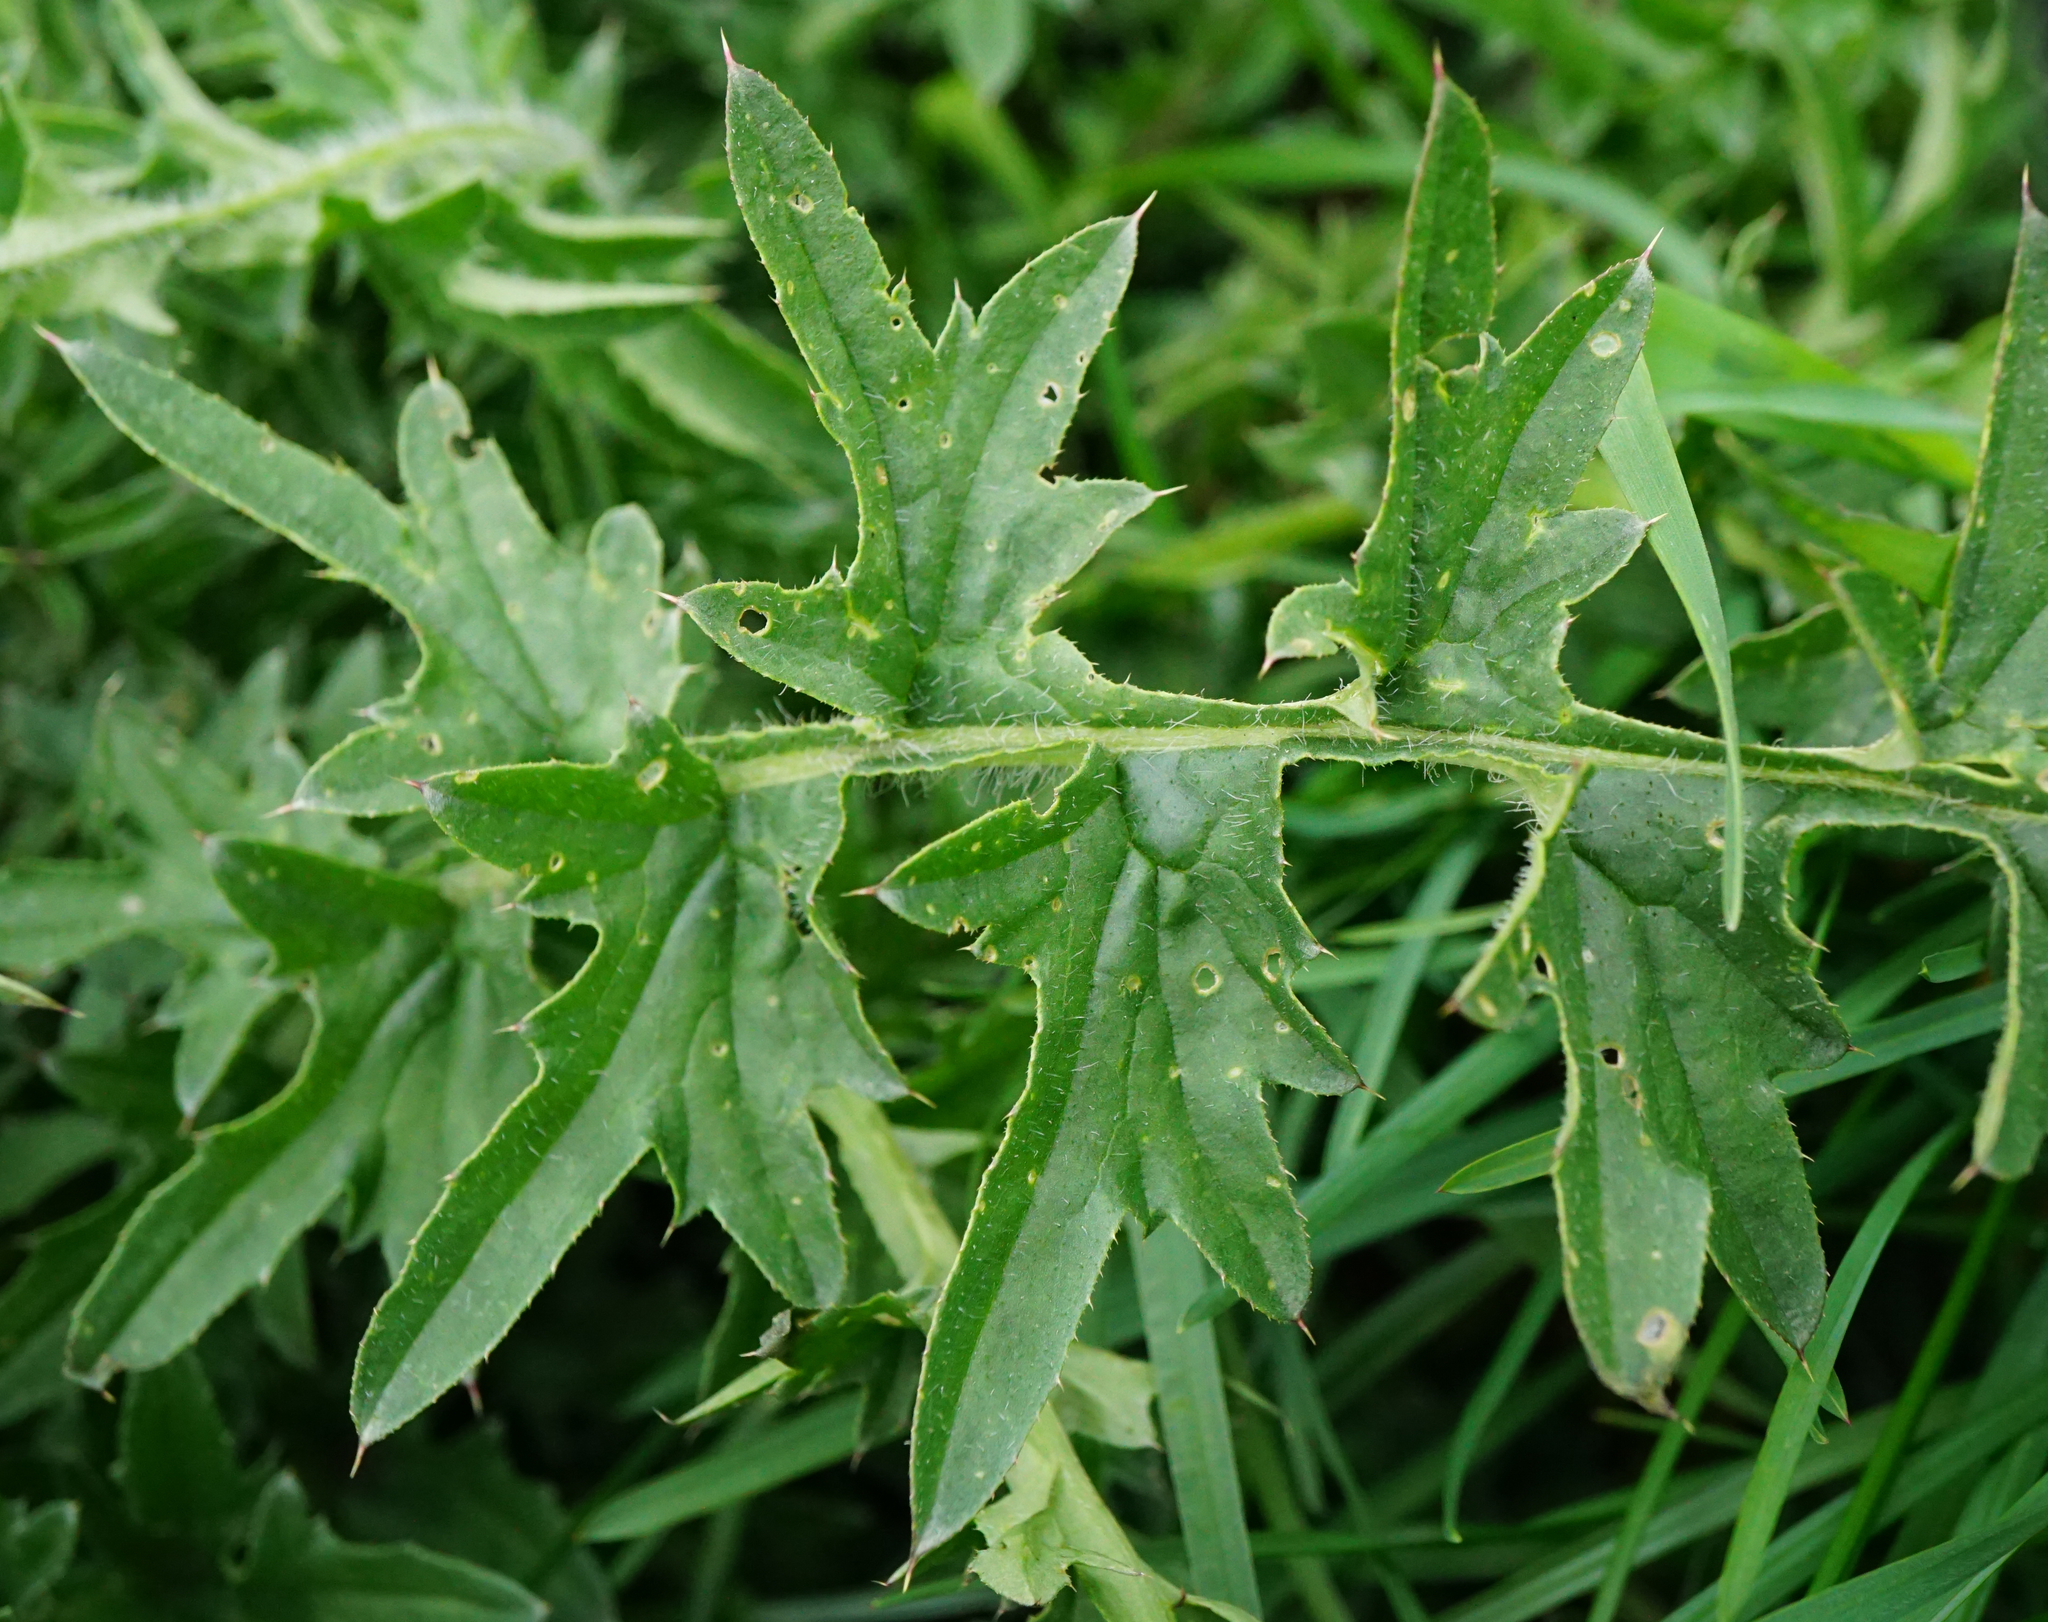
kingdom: Plantae
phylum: Tracheophyta
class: Magnoliopsida
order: Asterales
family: Asteraceae
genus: Carduus
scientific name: Carduus acanthoides
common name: Plumeless thistle
